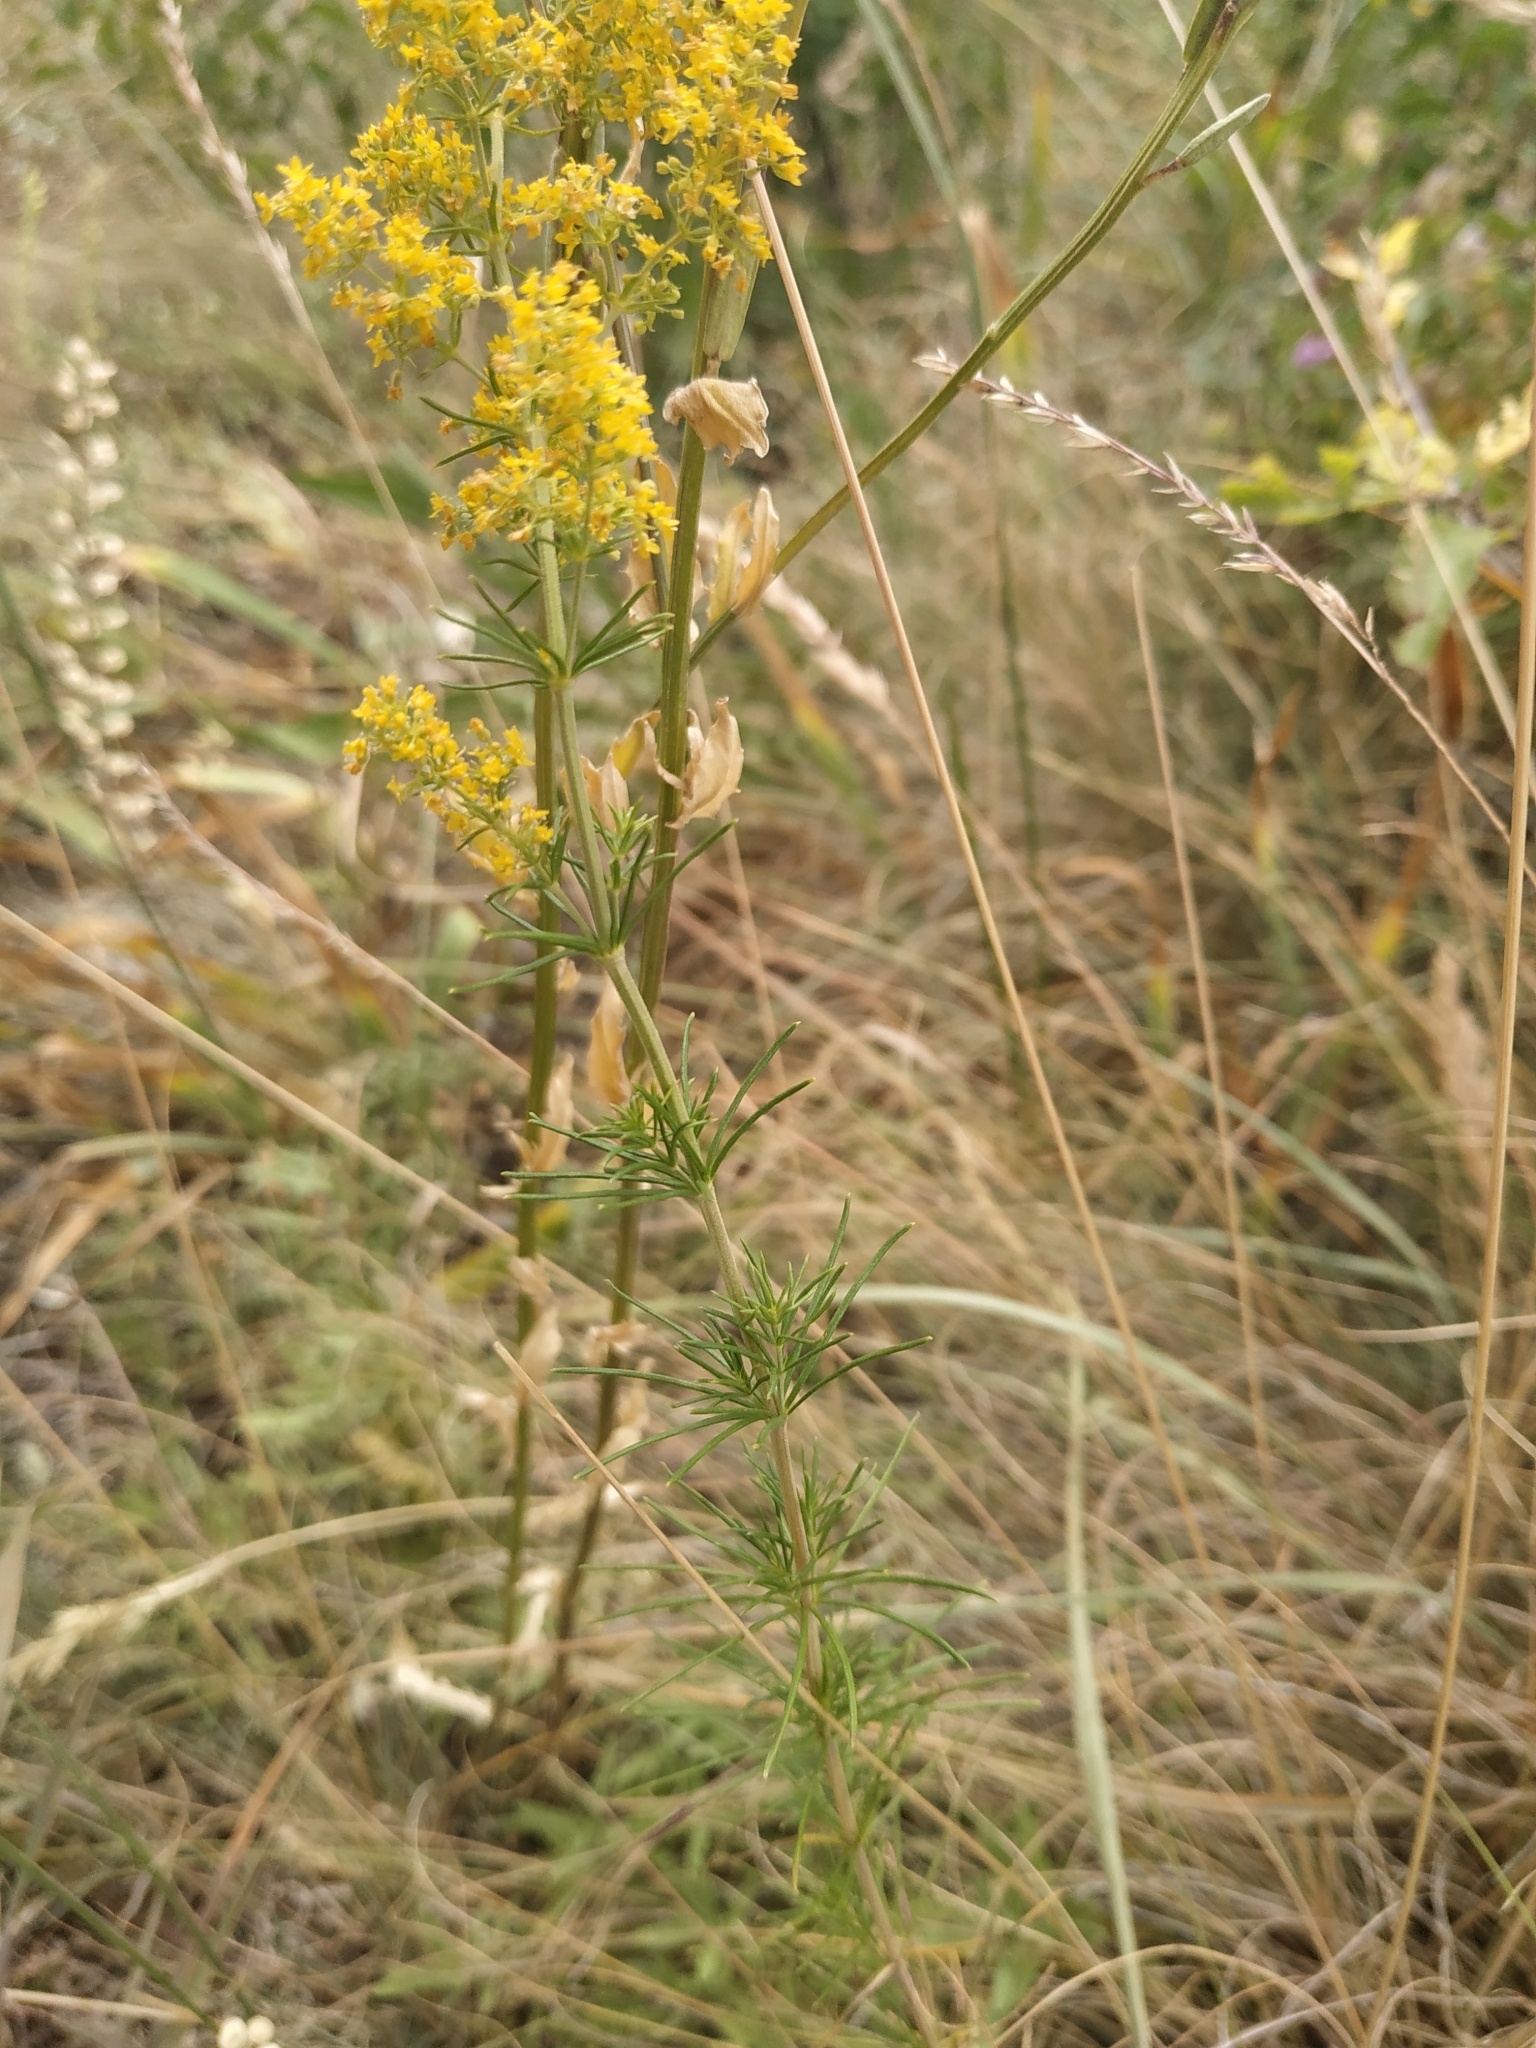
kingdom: Plantae
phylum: Tracheophyta
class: Magnoliopsida
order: Gentianales
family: Rubiaceae
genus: Galium
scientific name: Galium verum
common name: Lady's bedstraw
